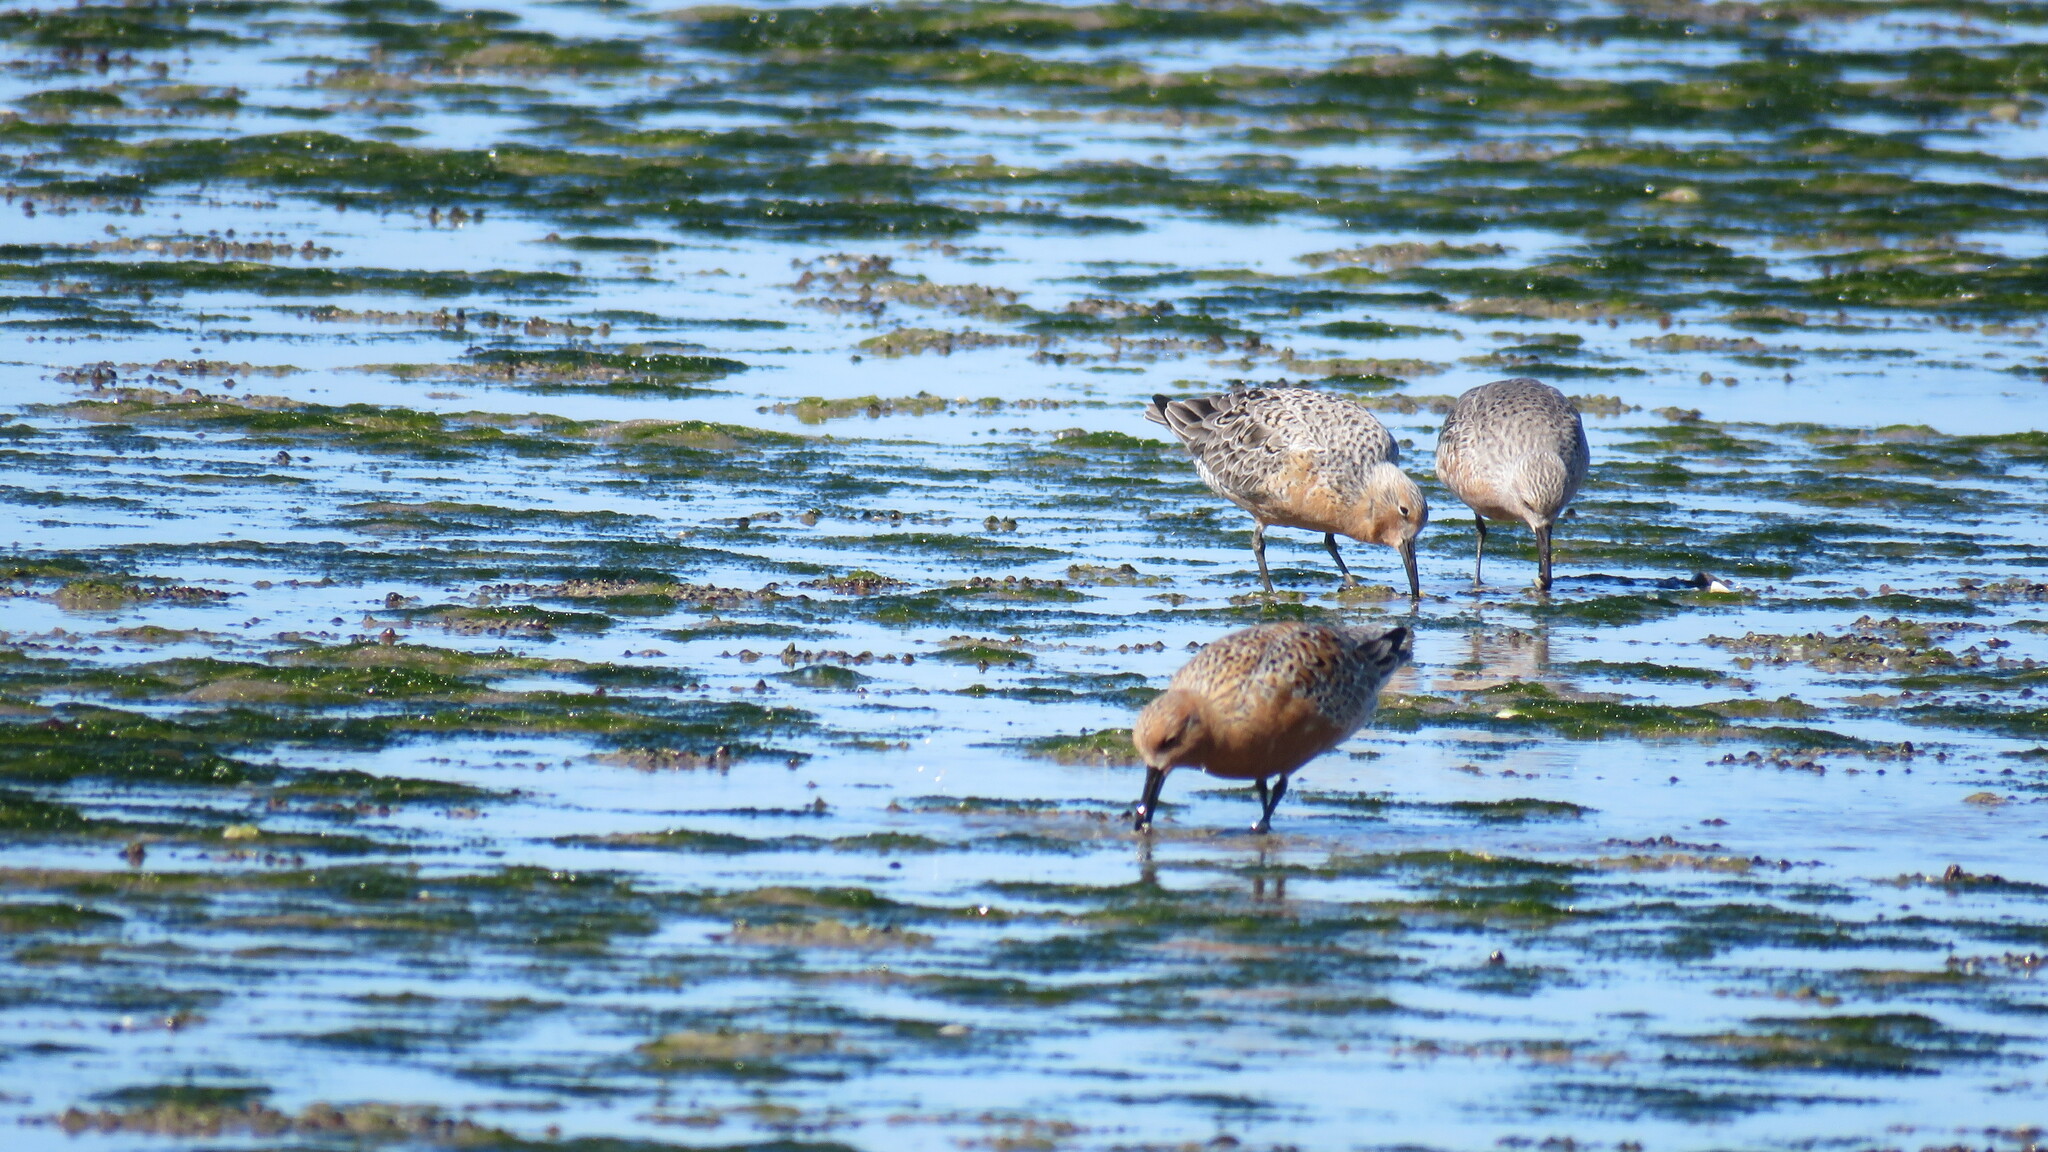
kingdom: Animalia
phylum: Chordata
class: Aves
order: Charadriiformes
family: Scolopacidae
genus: Calidris
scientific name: Calidris canutus
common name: Red knot
